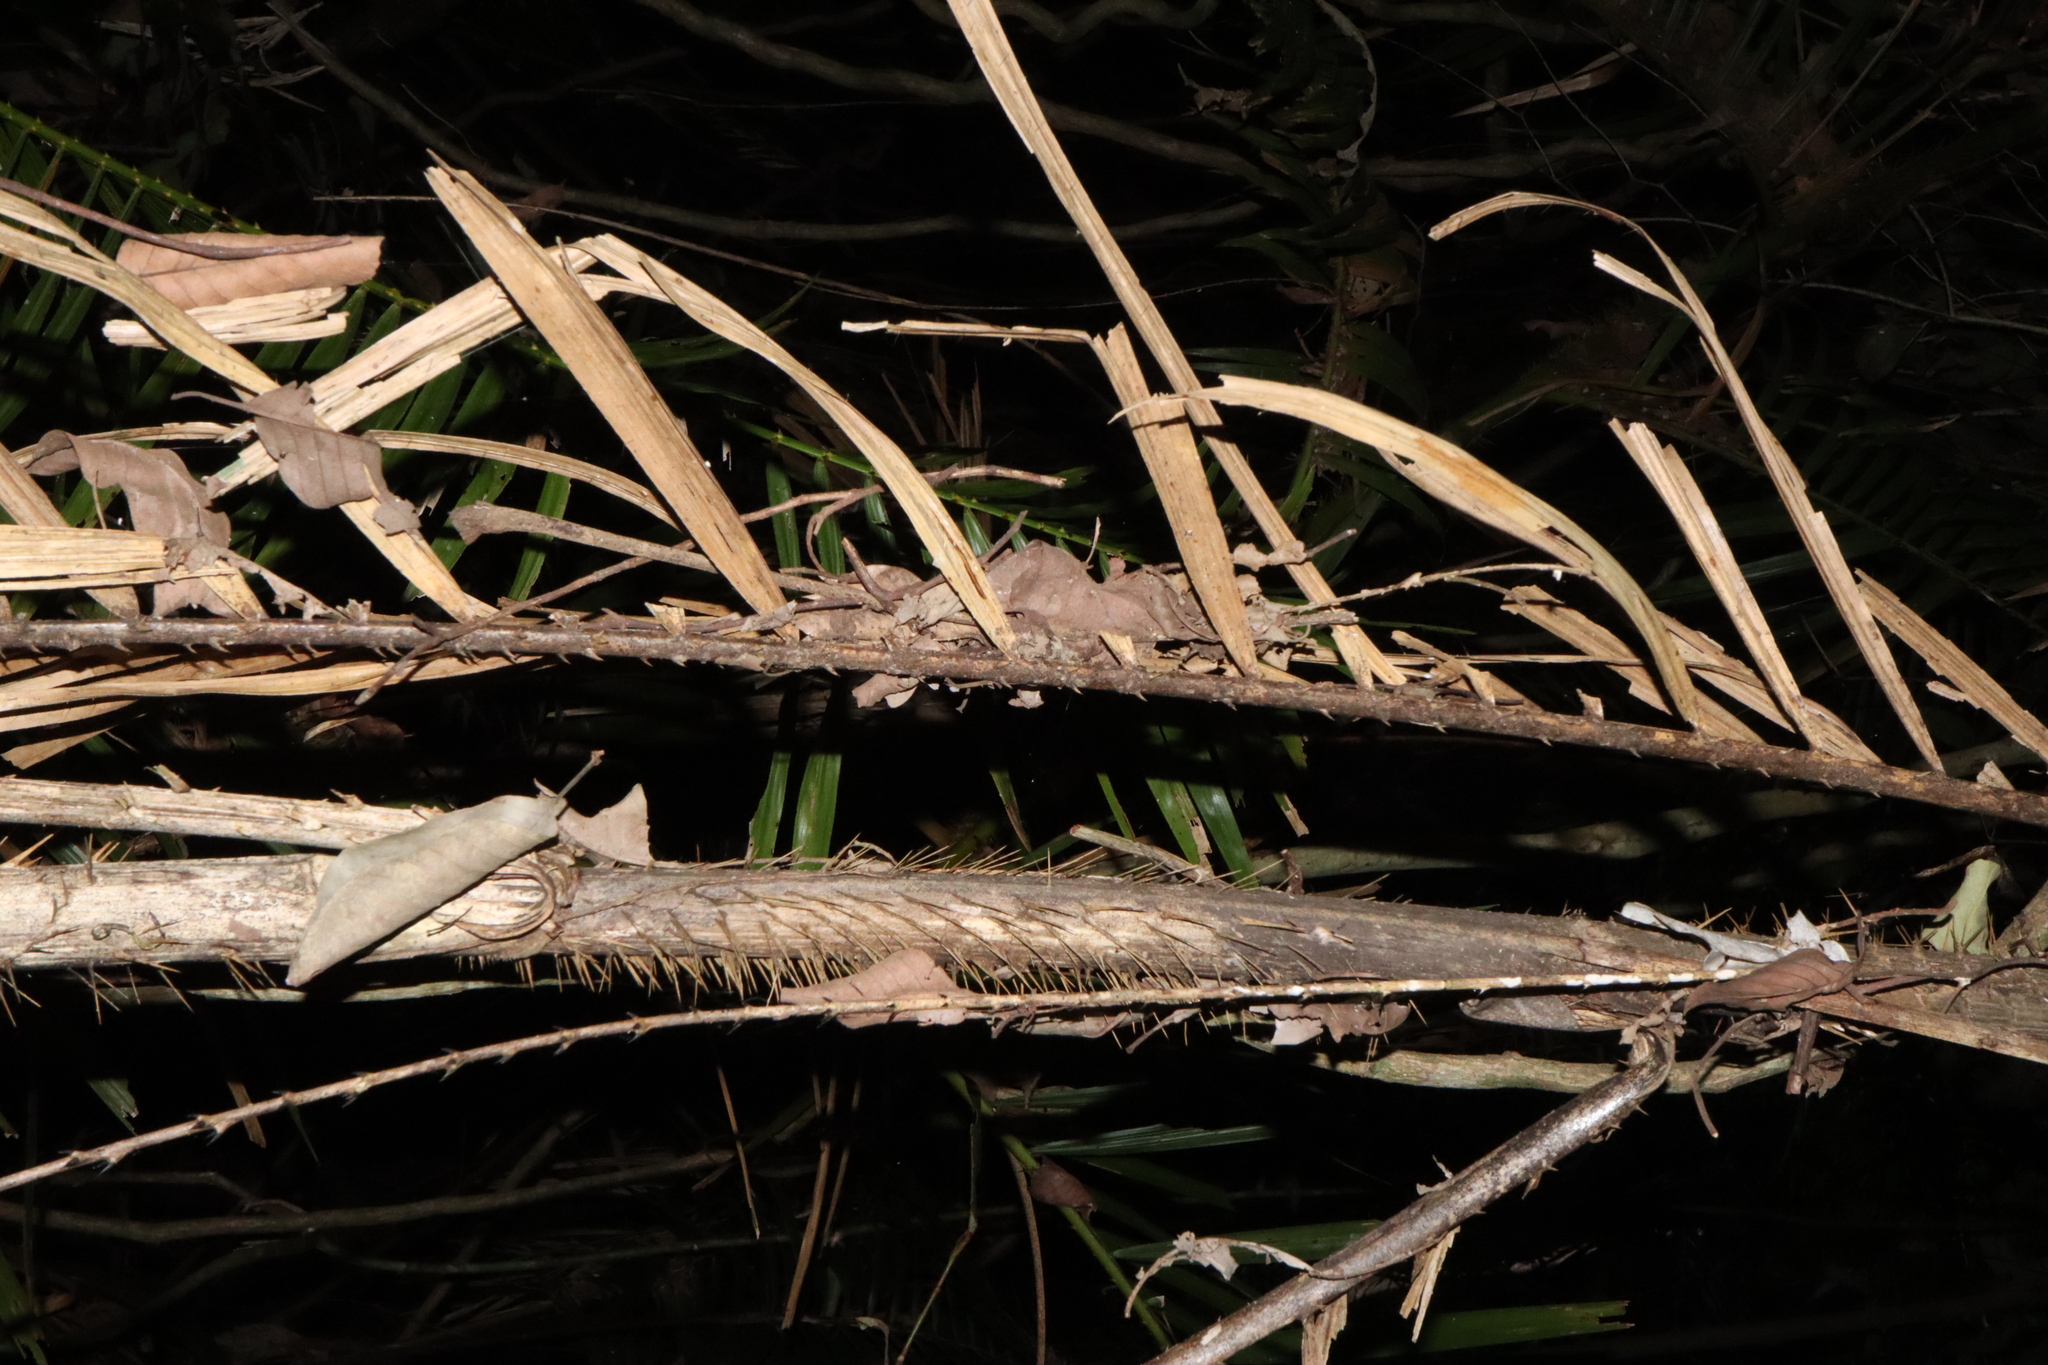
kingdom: Plantae
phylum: Tracheophyta
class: Liliopsida
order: Arecales
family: Arecaceae
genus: Calamus
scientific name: Calamus moti
